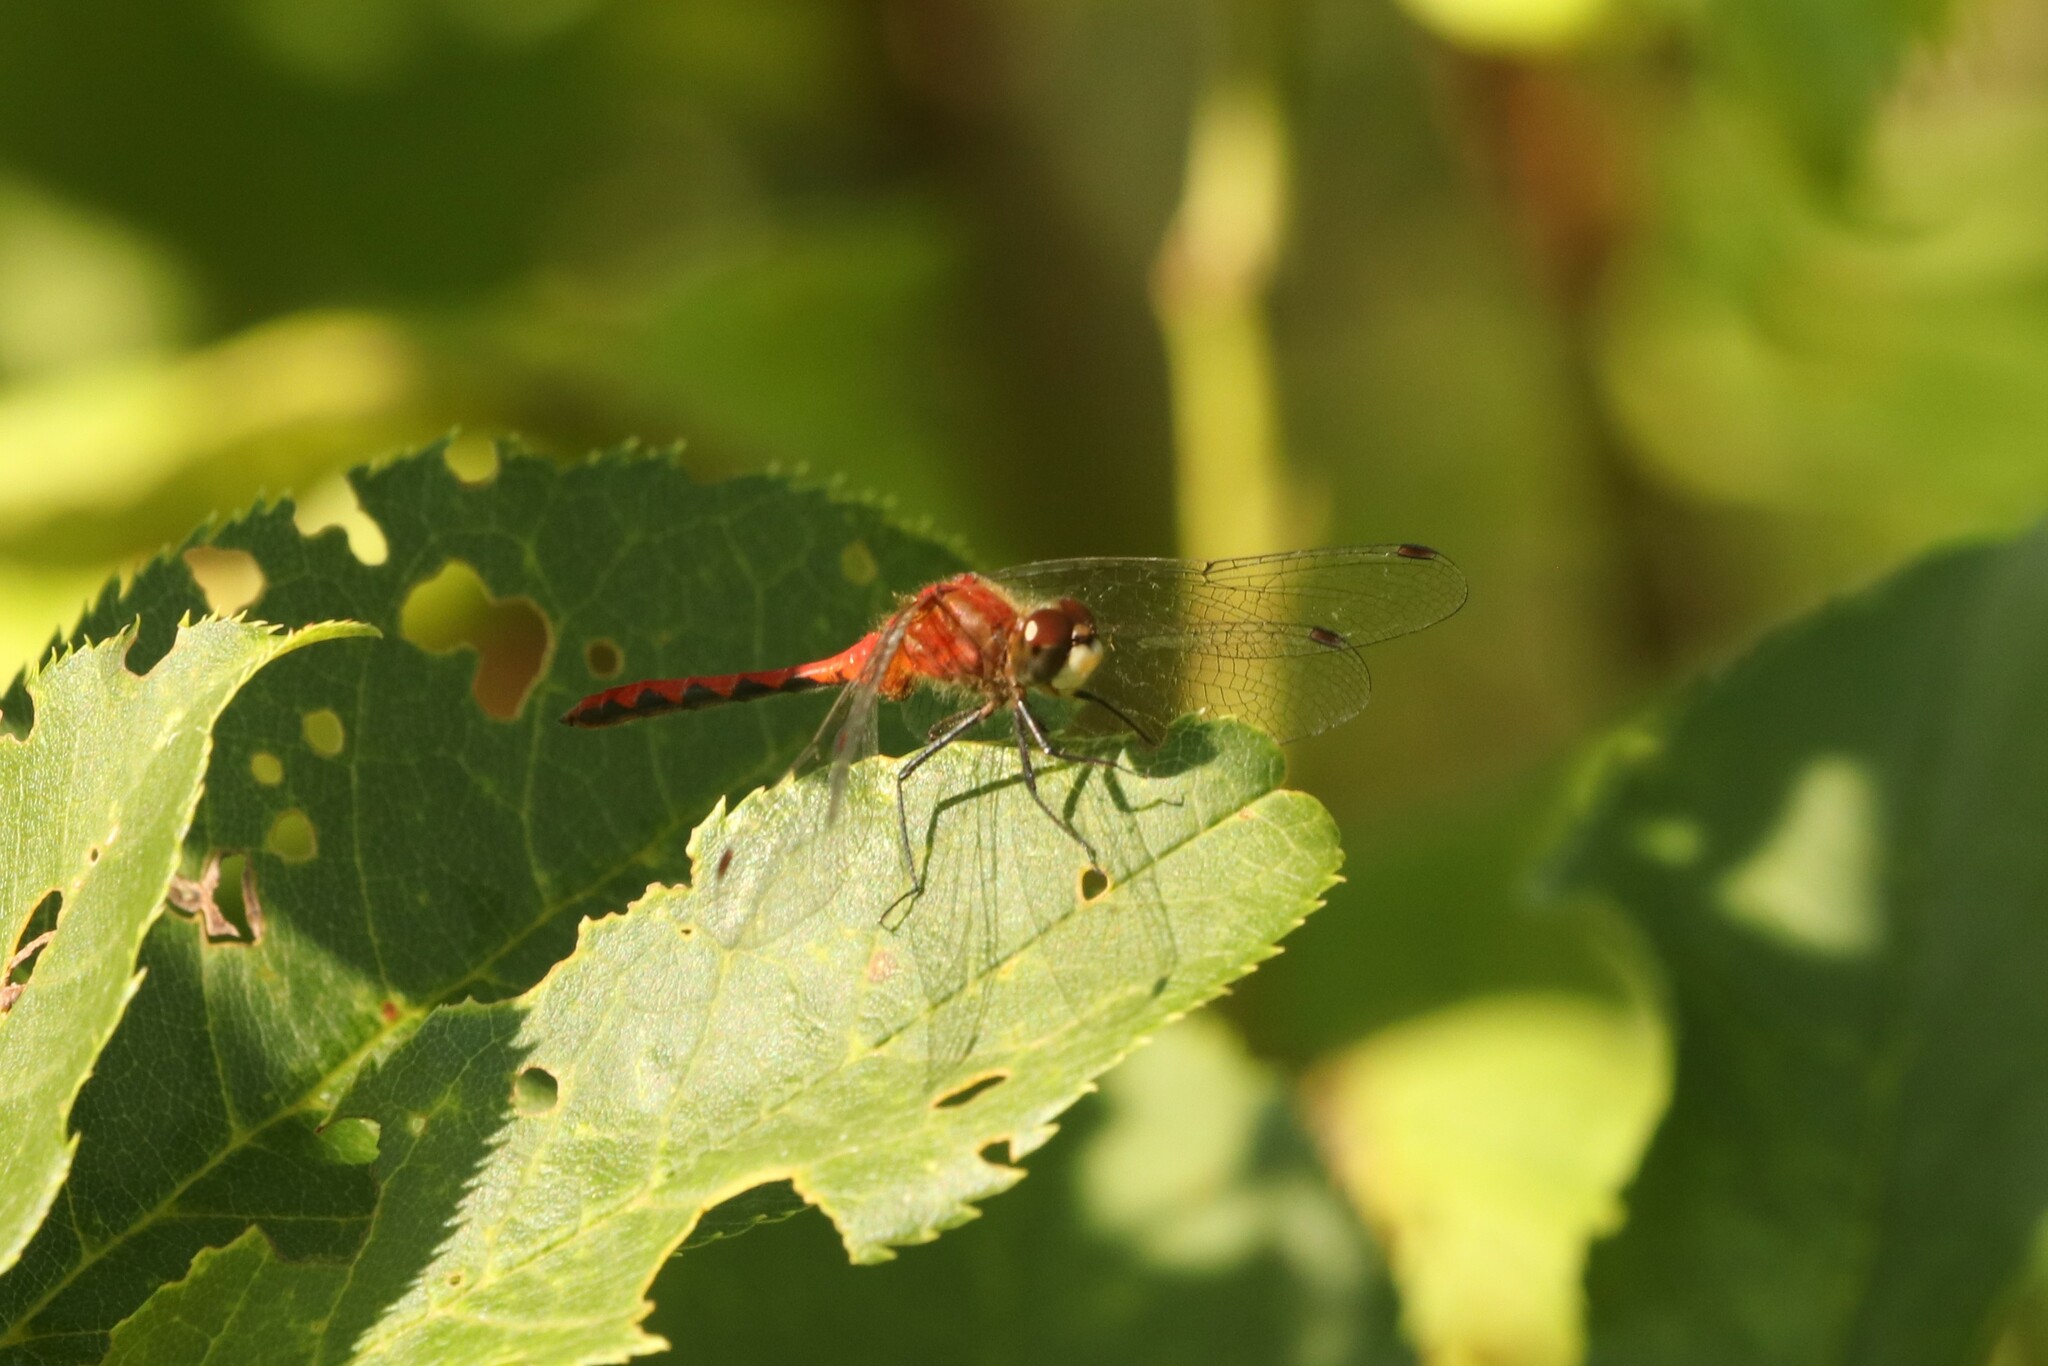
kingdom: Animalia
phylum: Arthropoda
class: Insecta
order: Odonata
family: Libellulidae
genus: Sympetrum
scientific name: Sympetrum obtrusum
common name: White-faced meadowhawk
